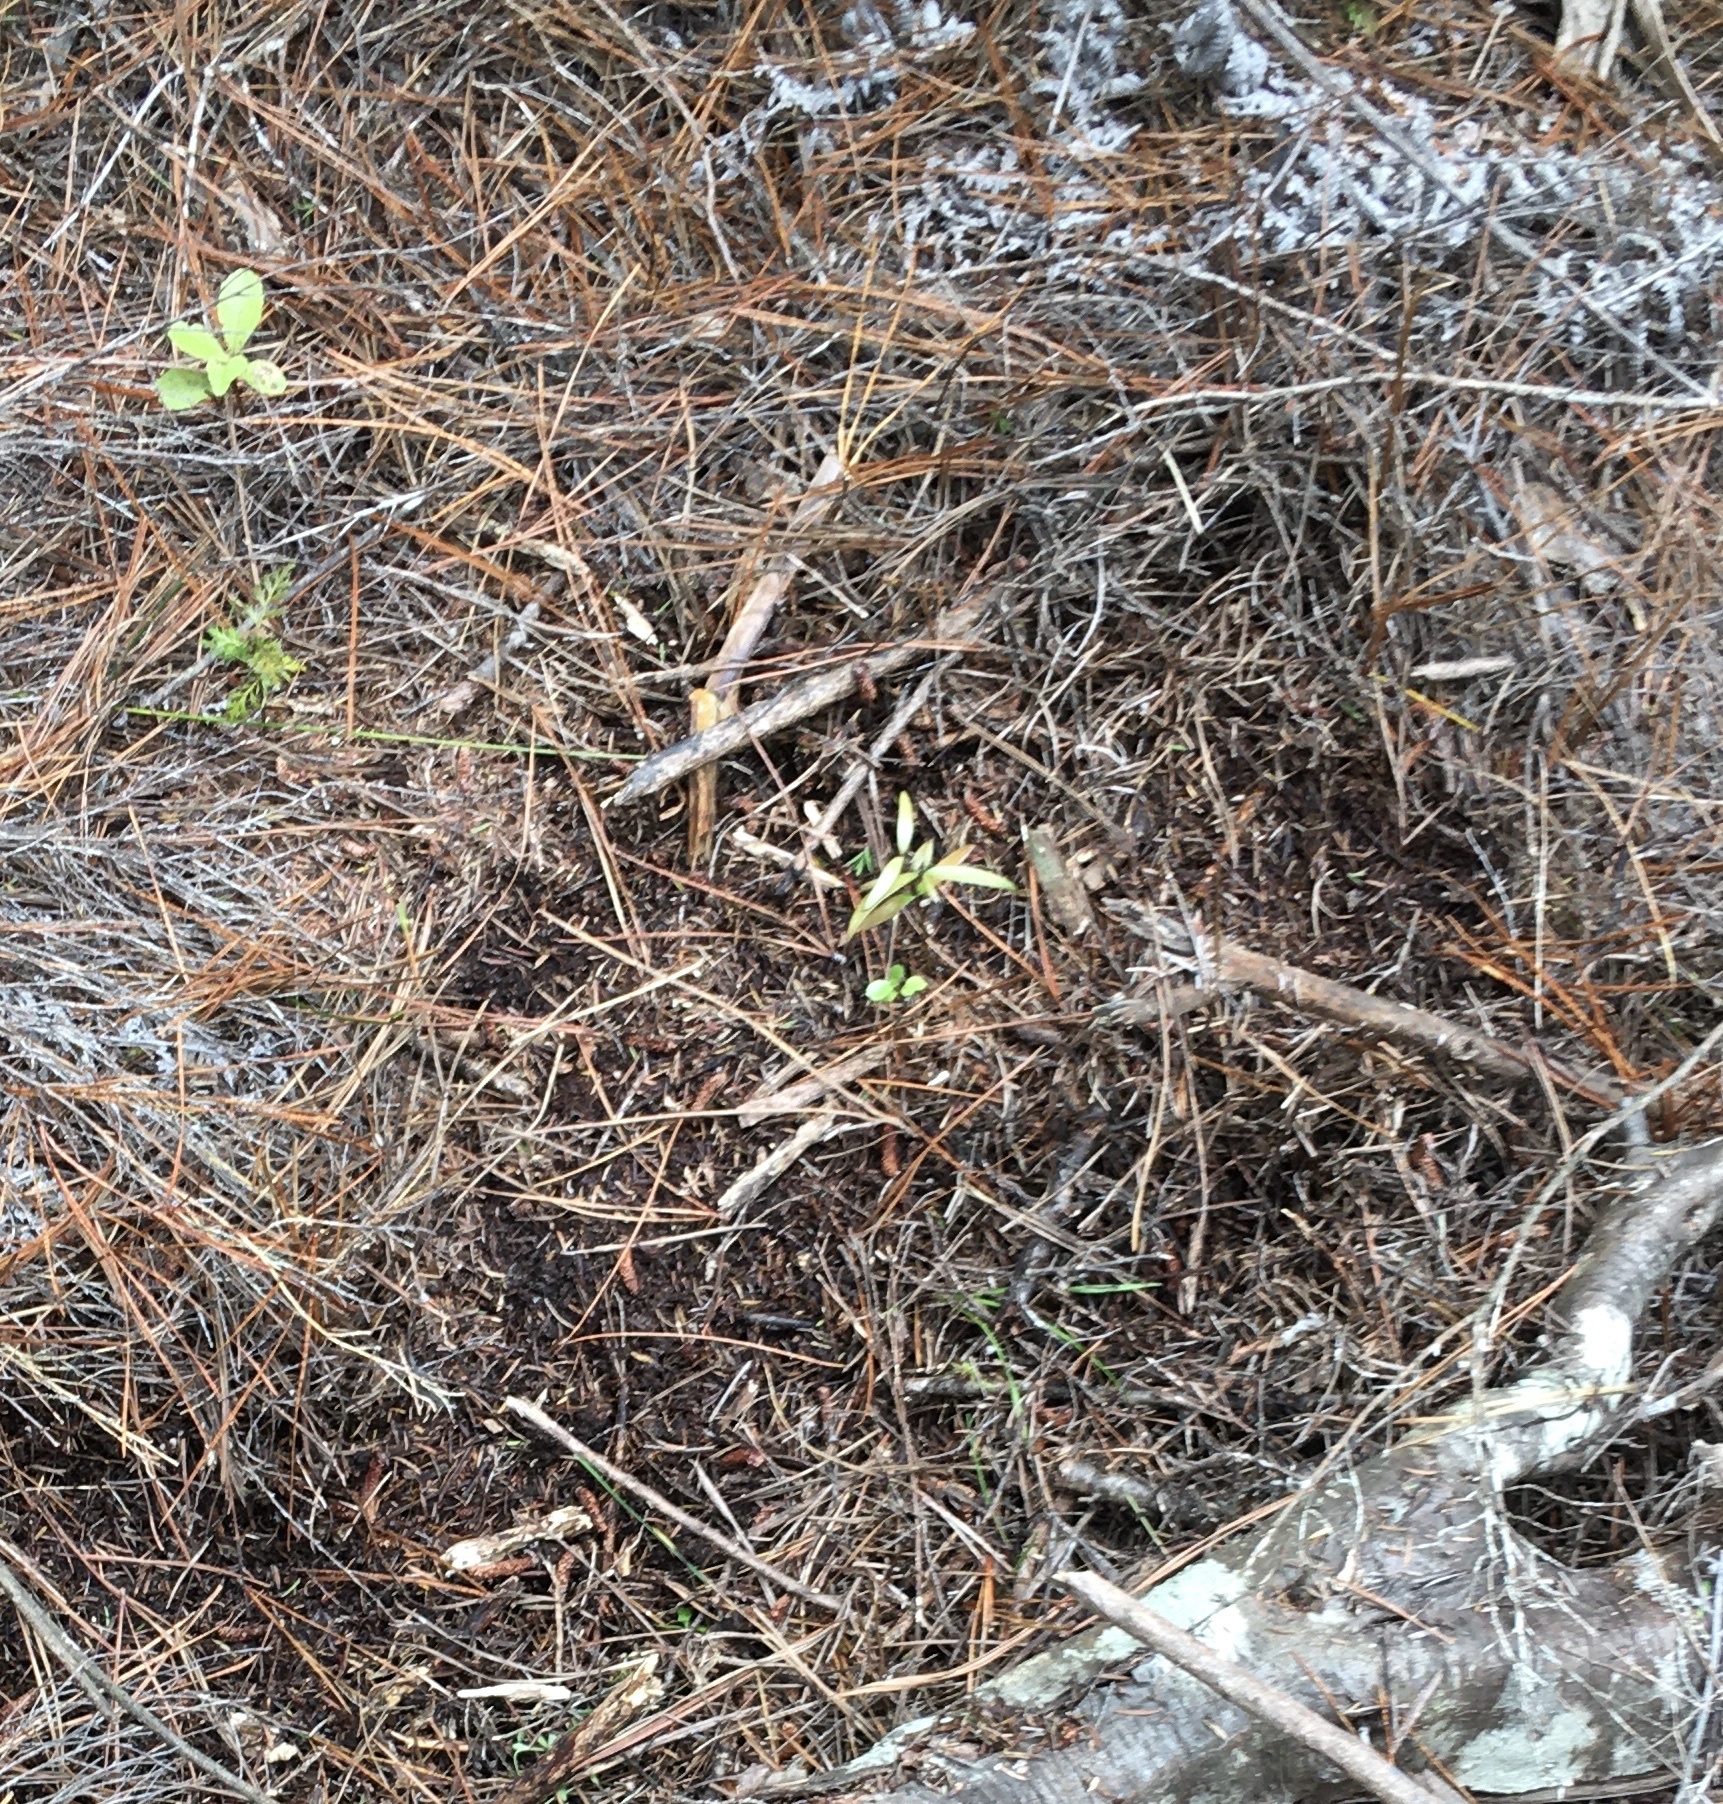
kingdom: Plantae
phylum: Tracheophyta
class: Pinopsida
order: Pinales
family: Araucariaceae
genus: Agathis
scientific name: Agathis australis
